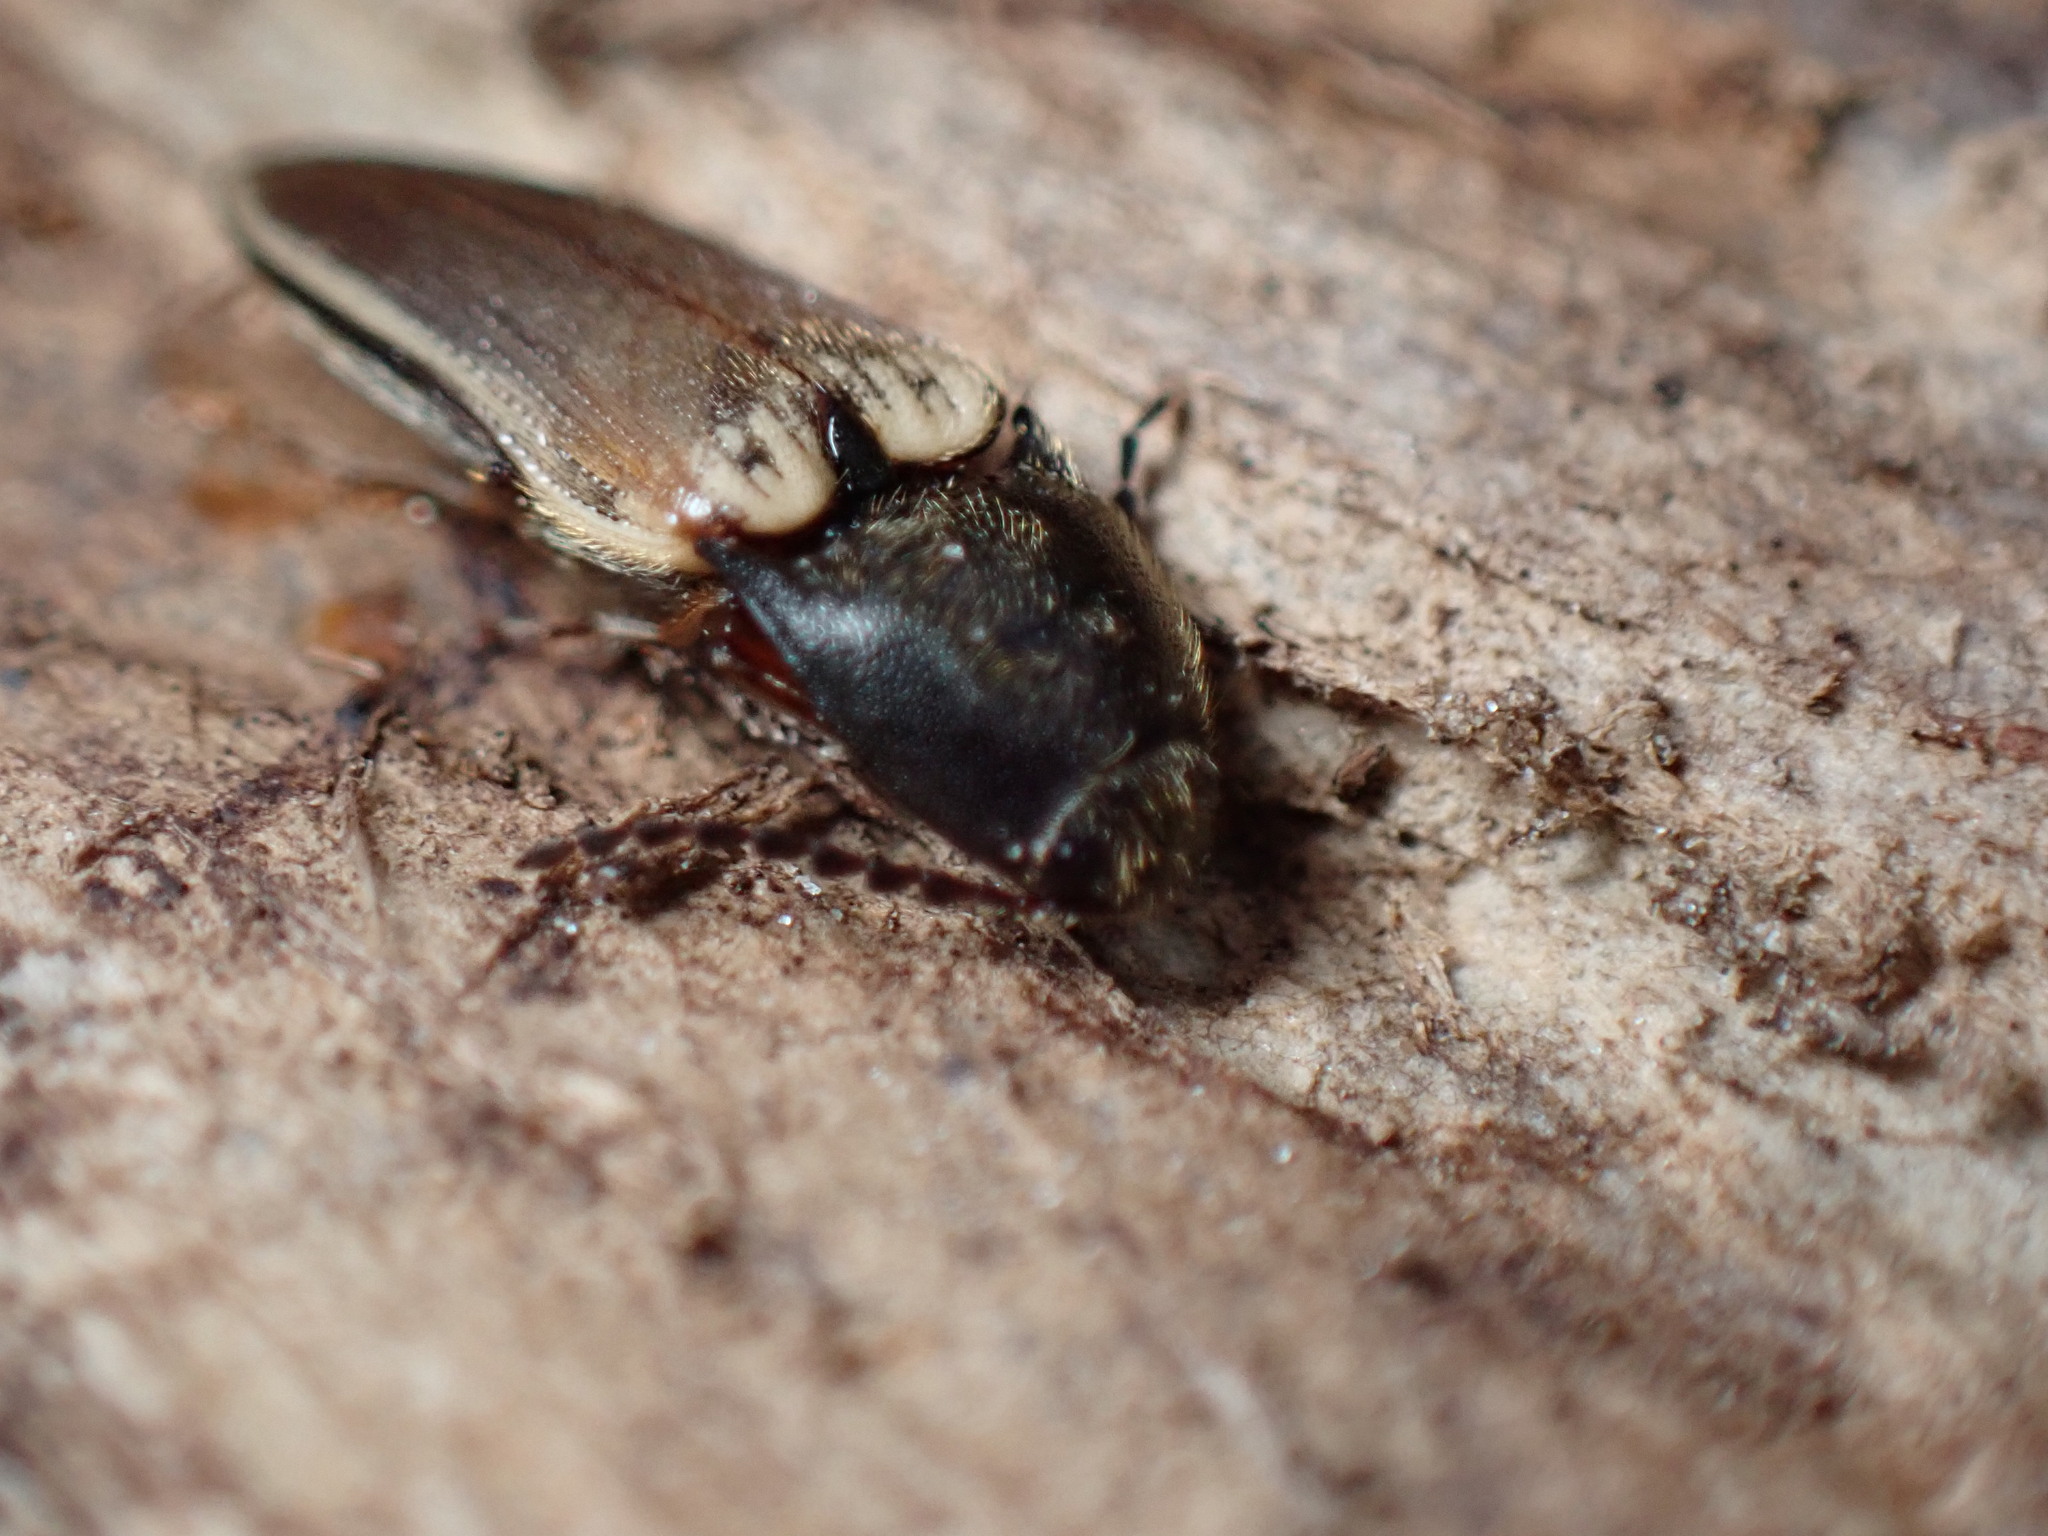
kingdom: Animalia
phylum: Arthropoda
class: Insecta
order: Coleoptera
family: Elateridae
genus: Ampedus
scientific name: Ampedus nigricollis
